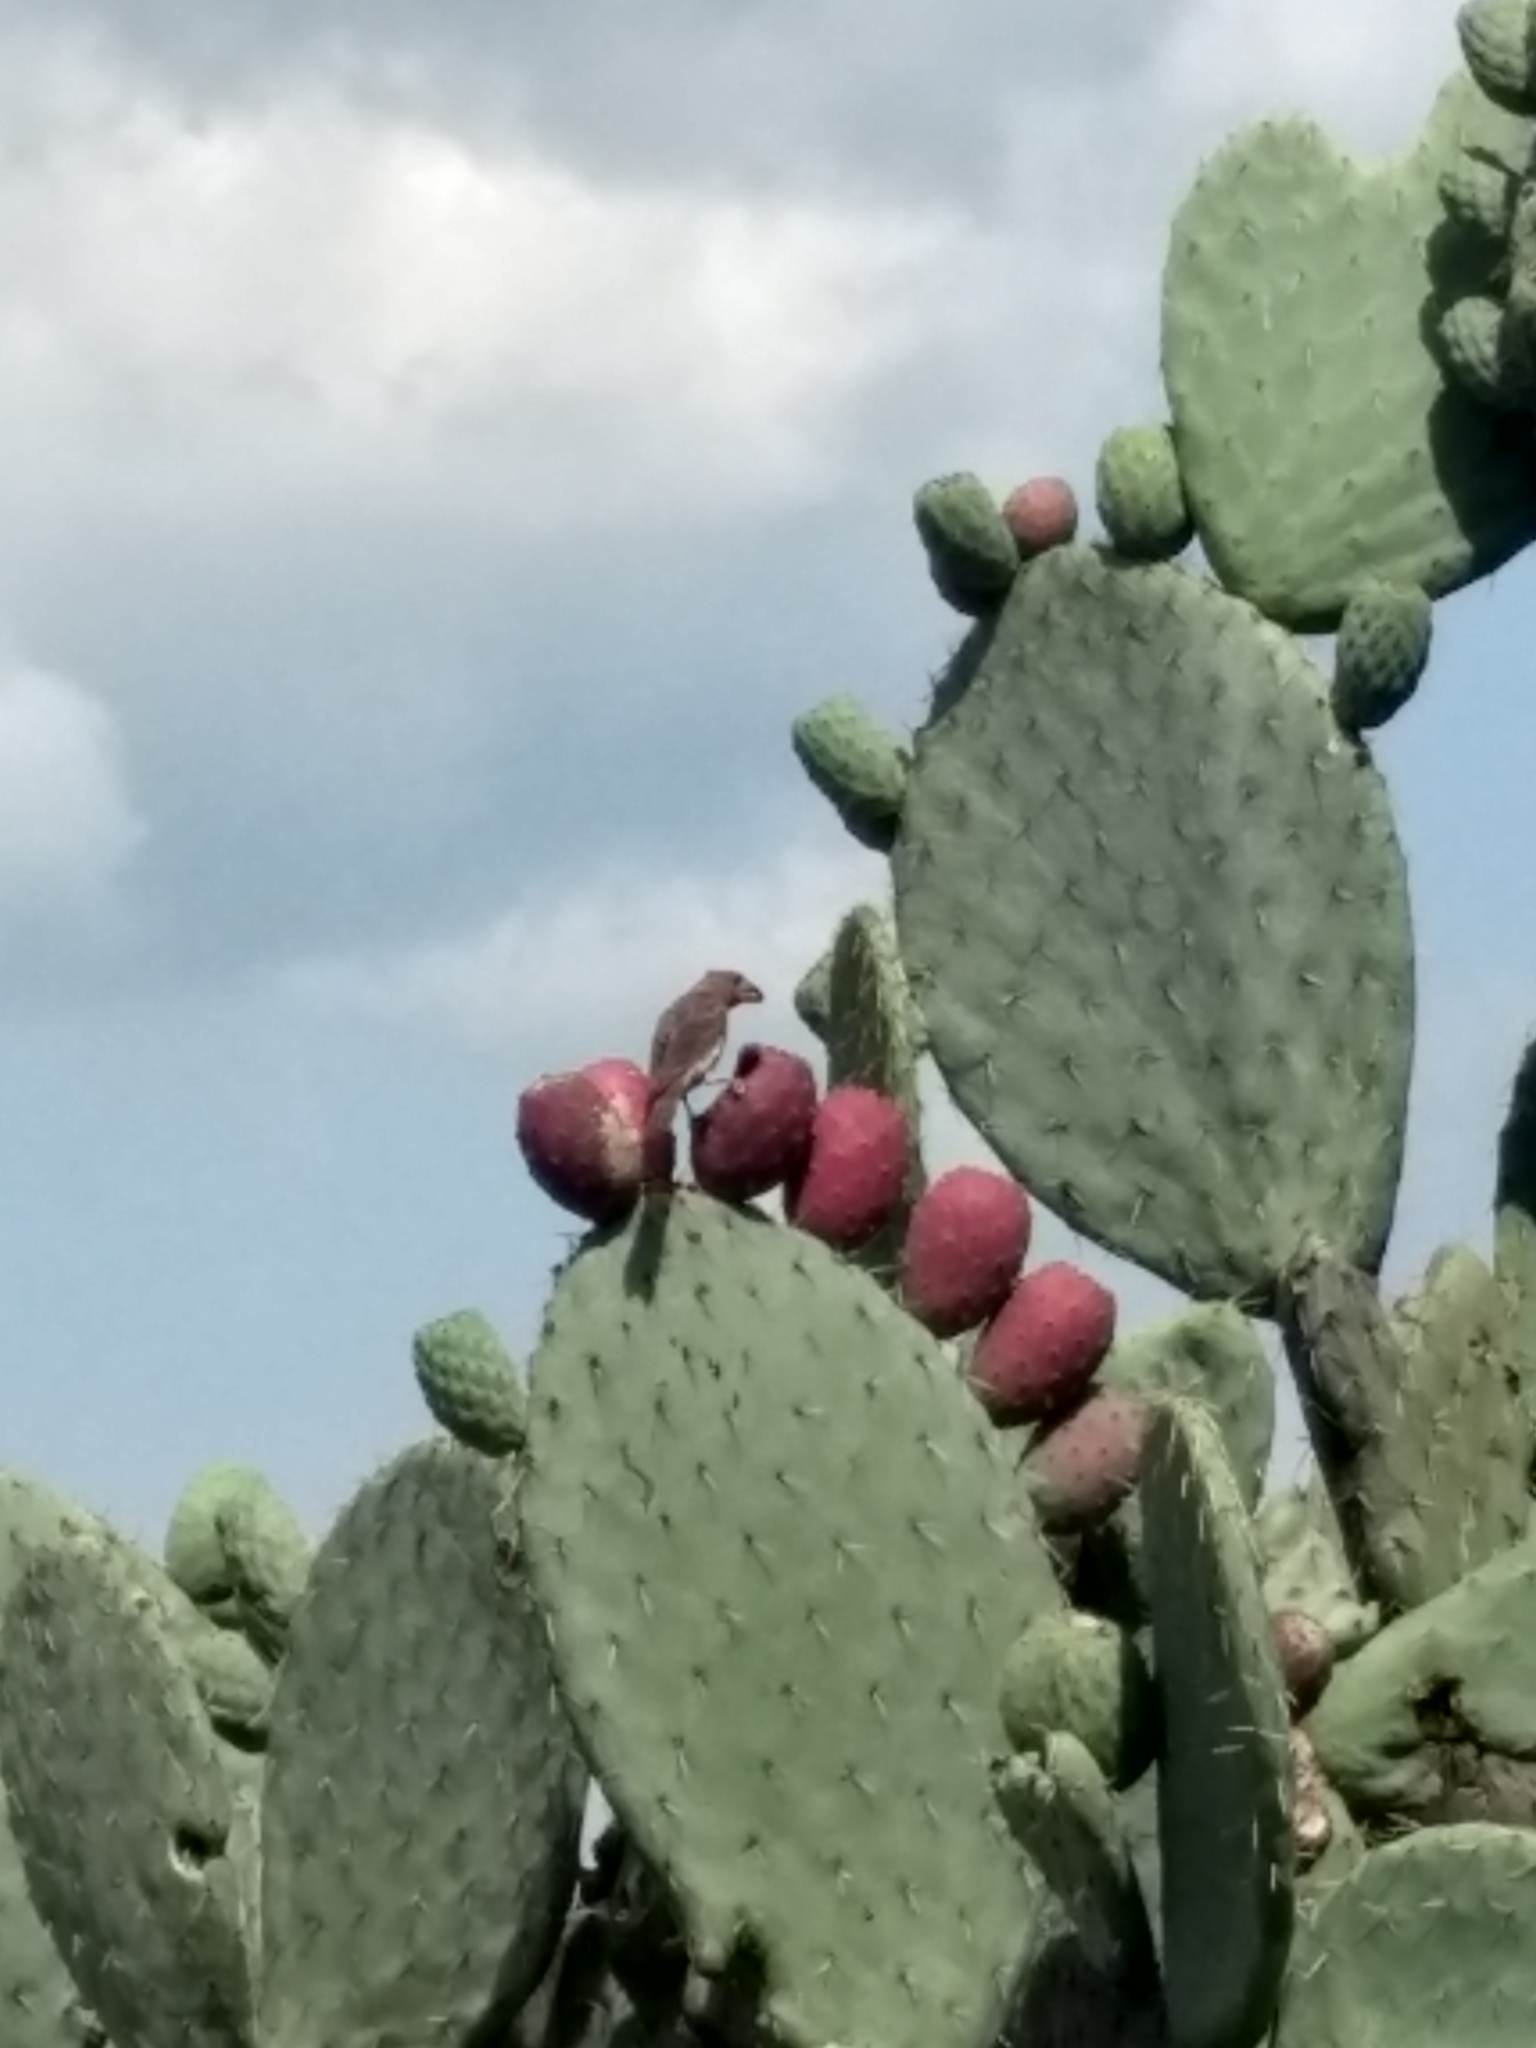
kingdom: Animalia
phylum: Chordata
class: Aves
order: Passeriformes
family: Fringillidae
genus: Haemorhous
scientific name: Haemorhous mexicanus
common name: House finch
